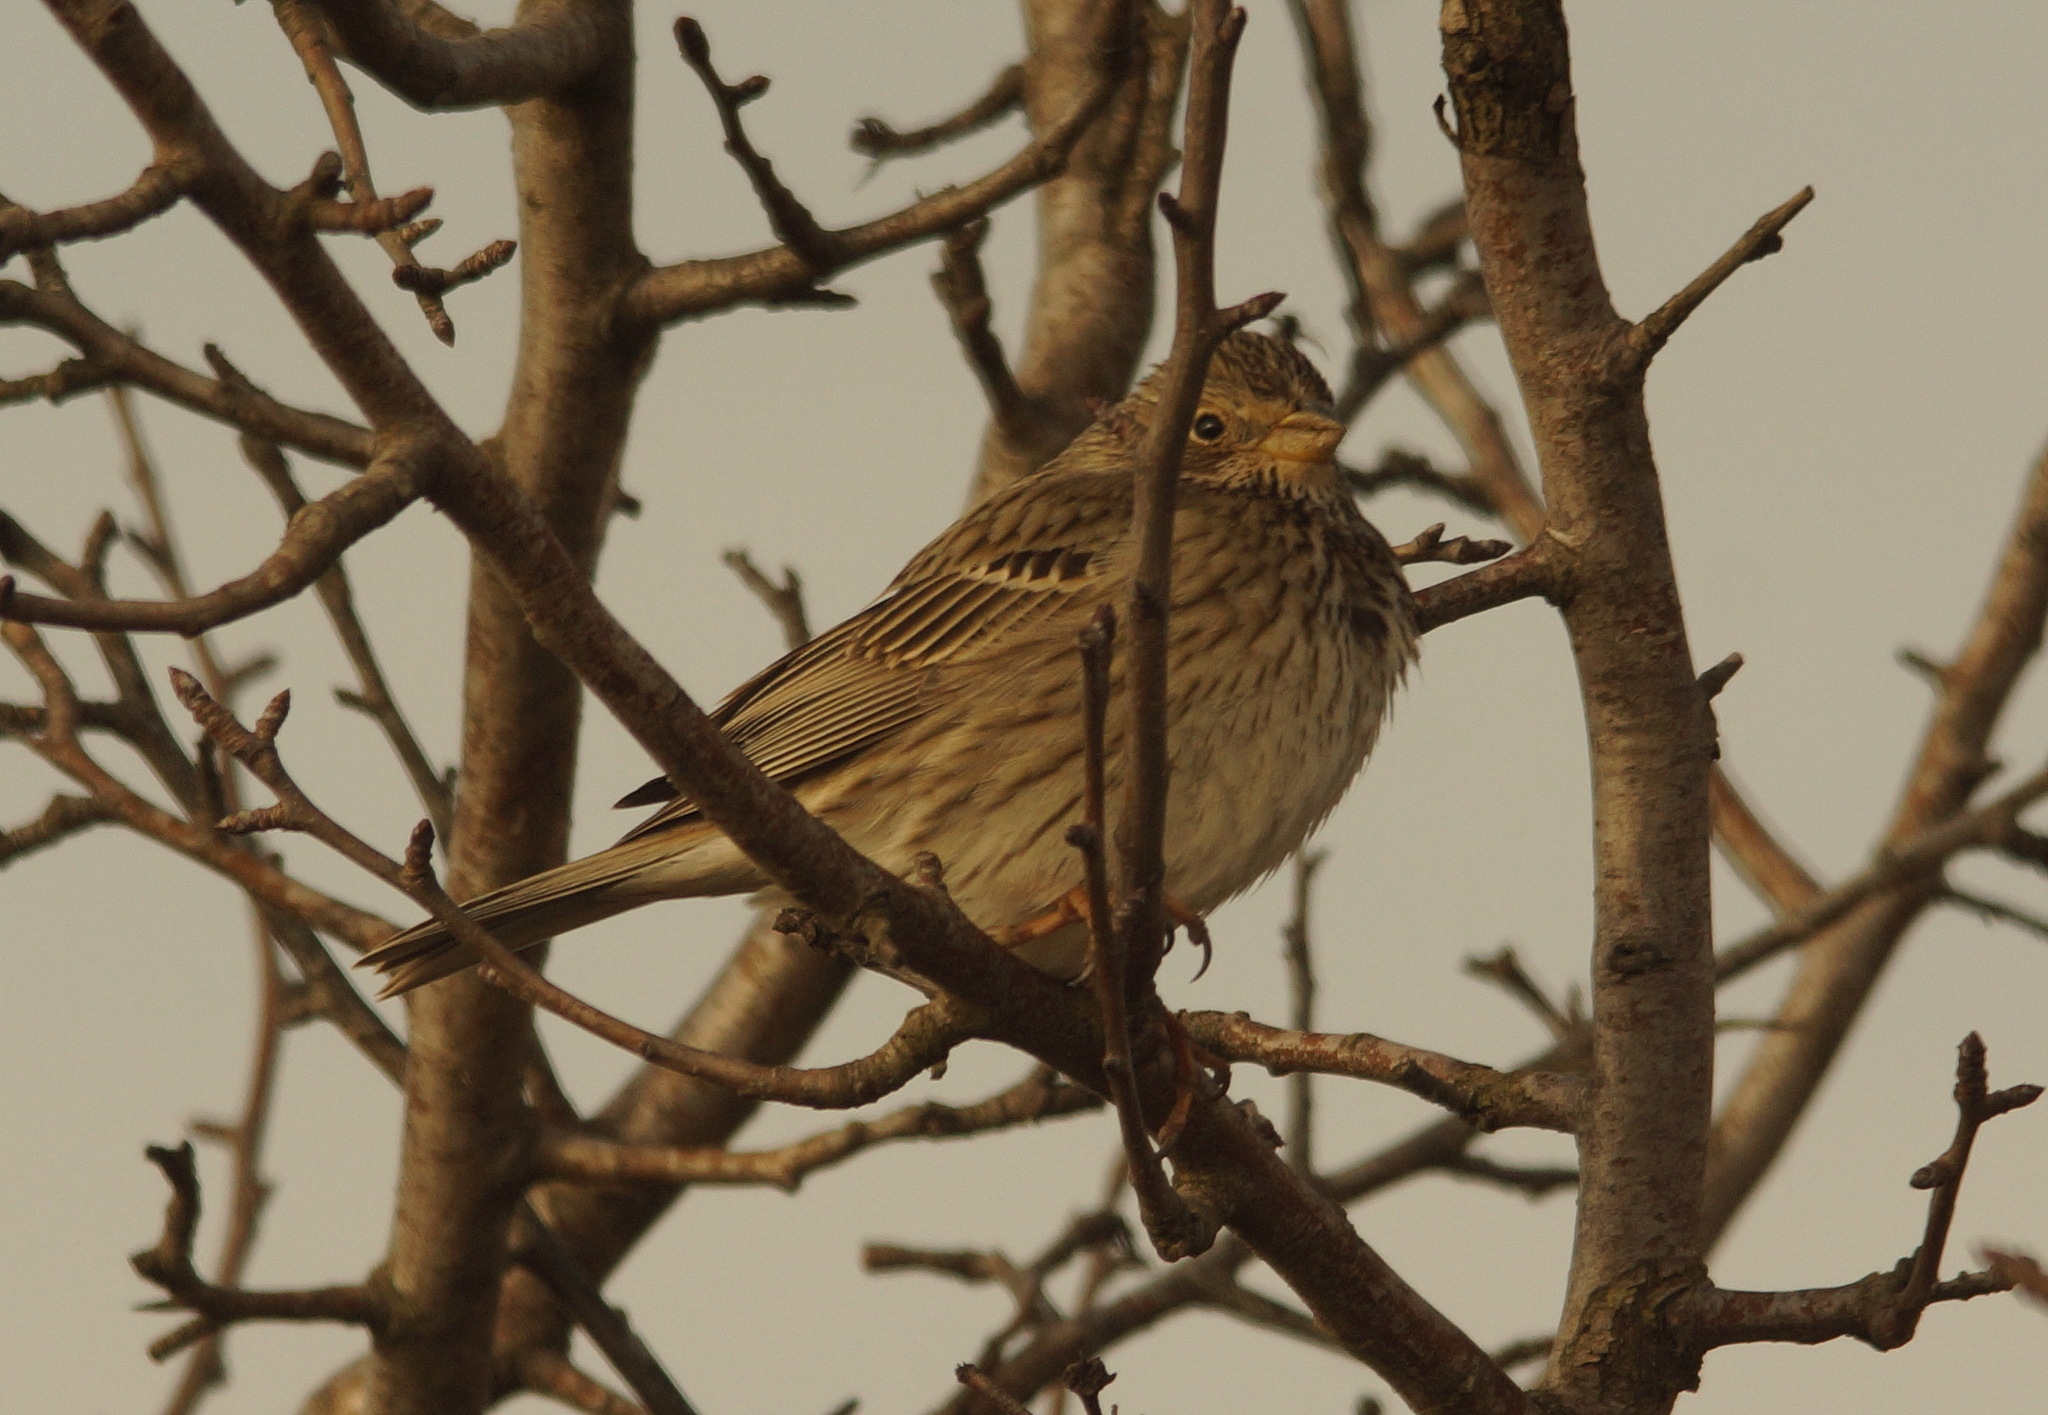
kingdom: Animalia
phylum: Chordata
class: Aves
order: Passeriformes
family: Emberizidae
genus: Emberiza
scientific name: Emberiza calandra
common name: Corn bunting
